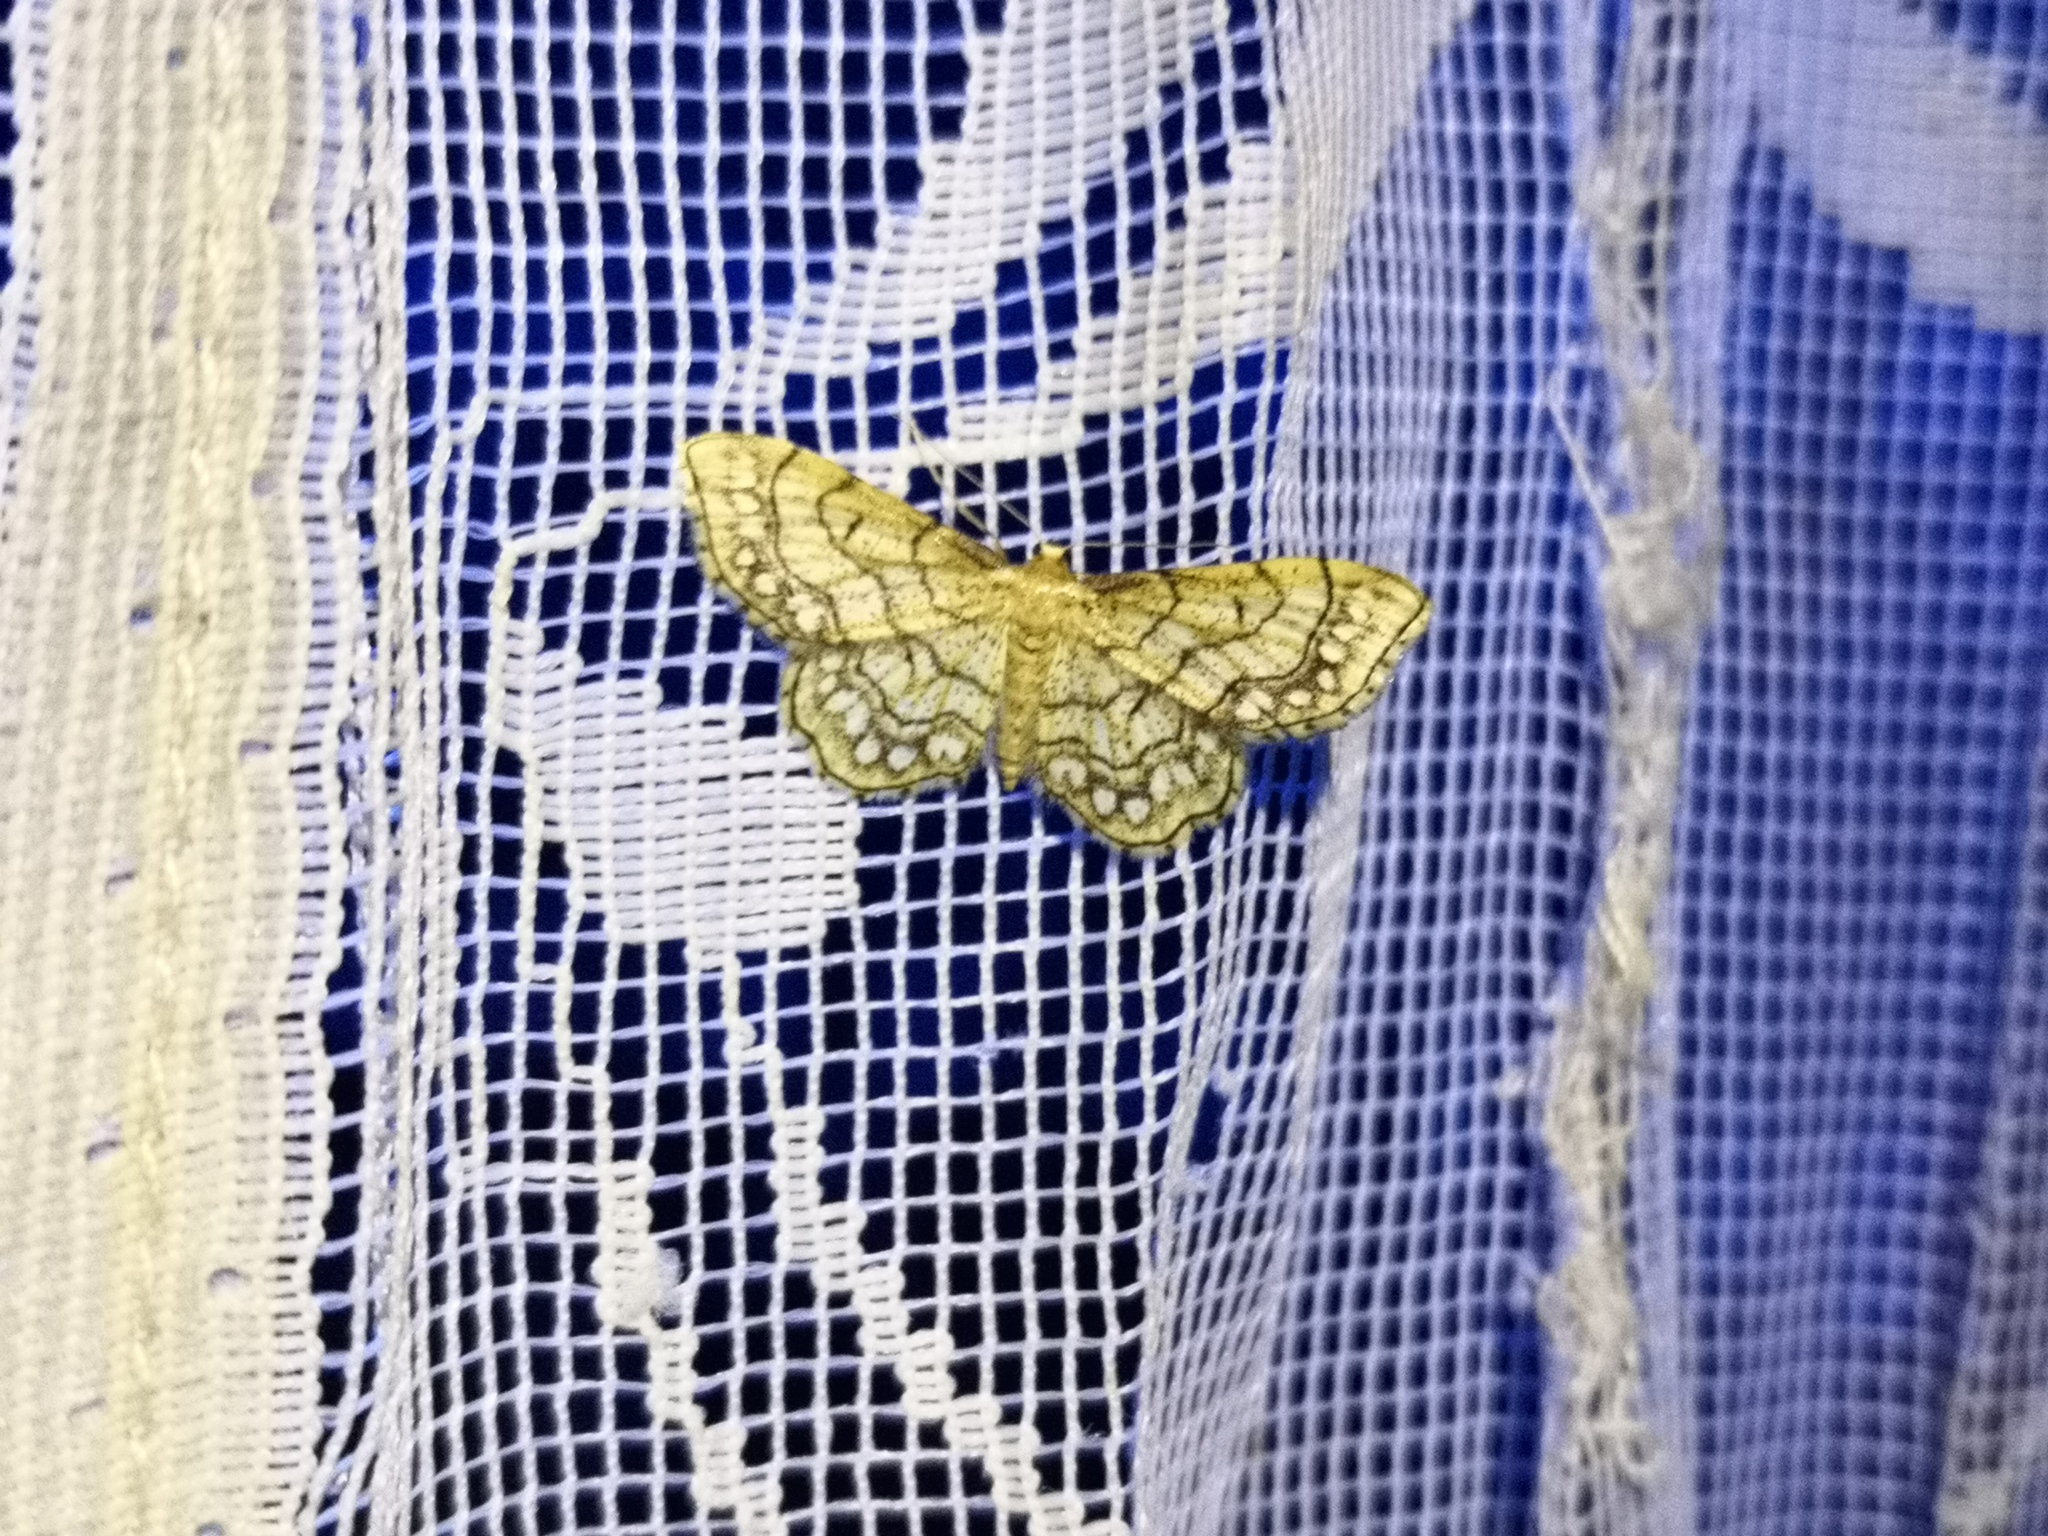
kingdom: Animalia
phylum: Arthropoda
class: Insecta
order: Lepidoptera
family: Geometridae
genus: Idaea
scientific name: Idaea moniliata
